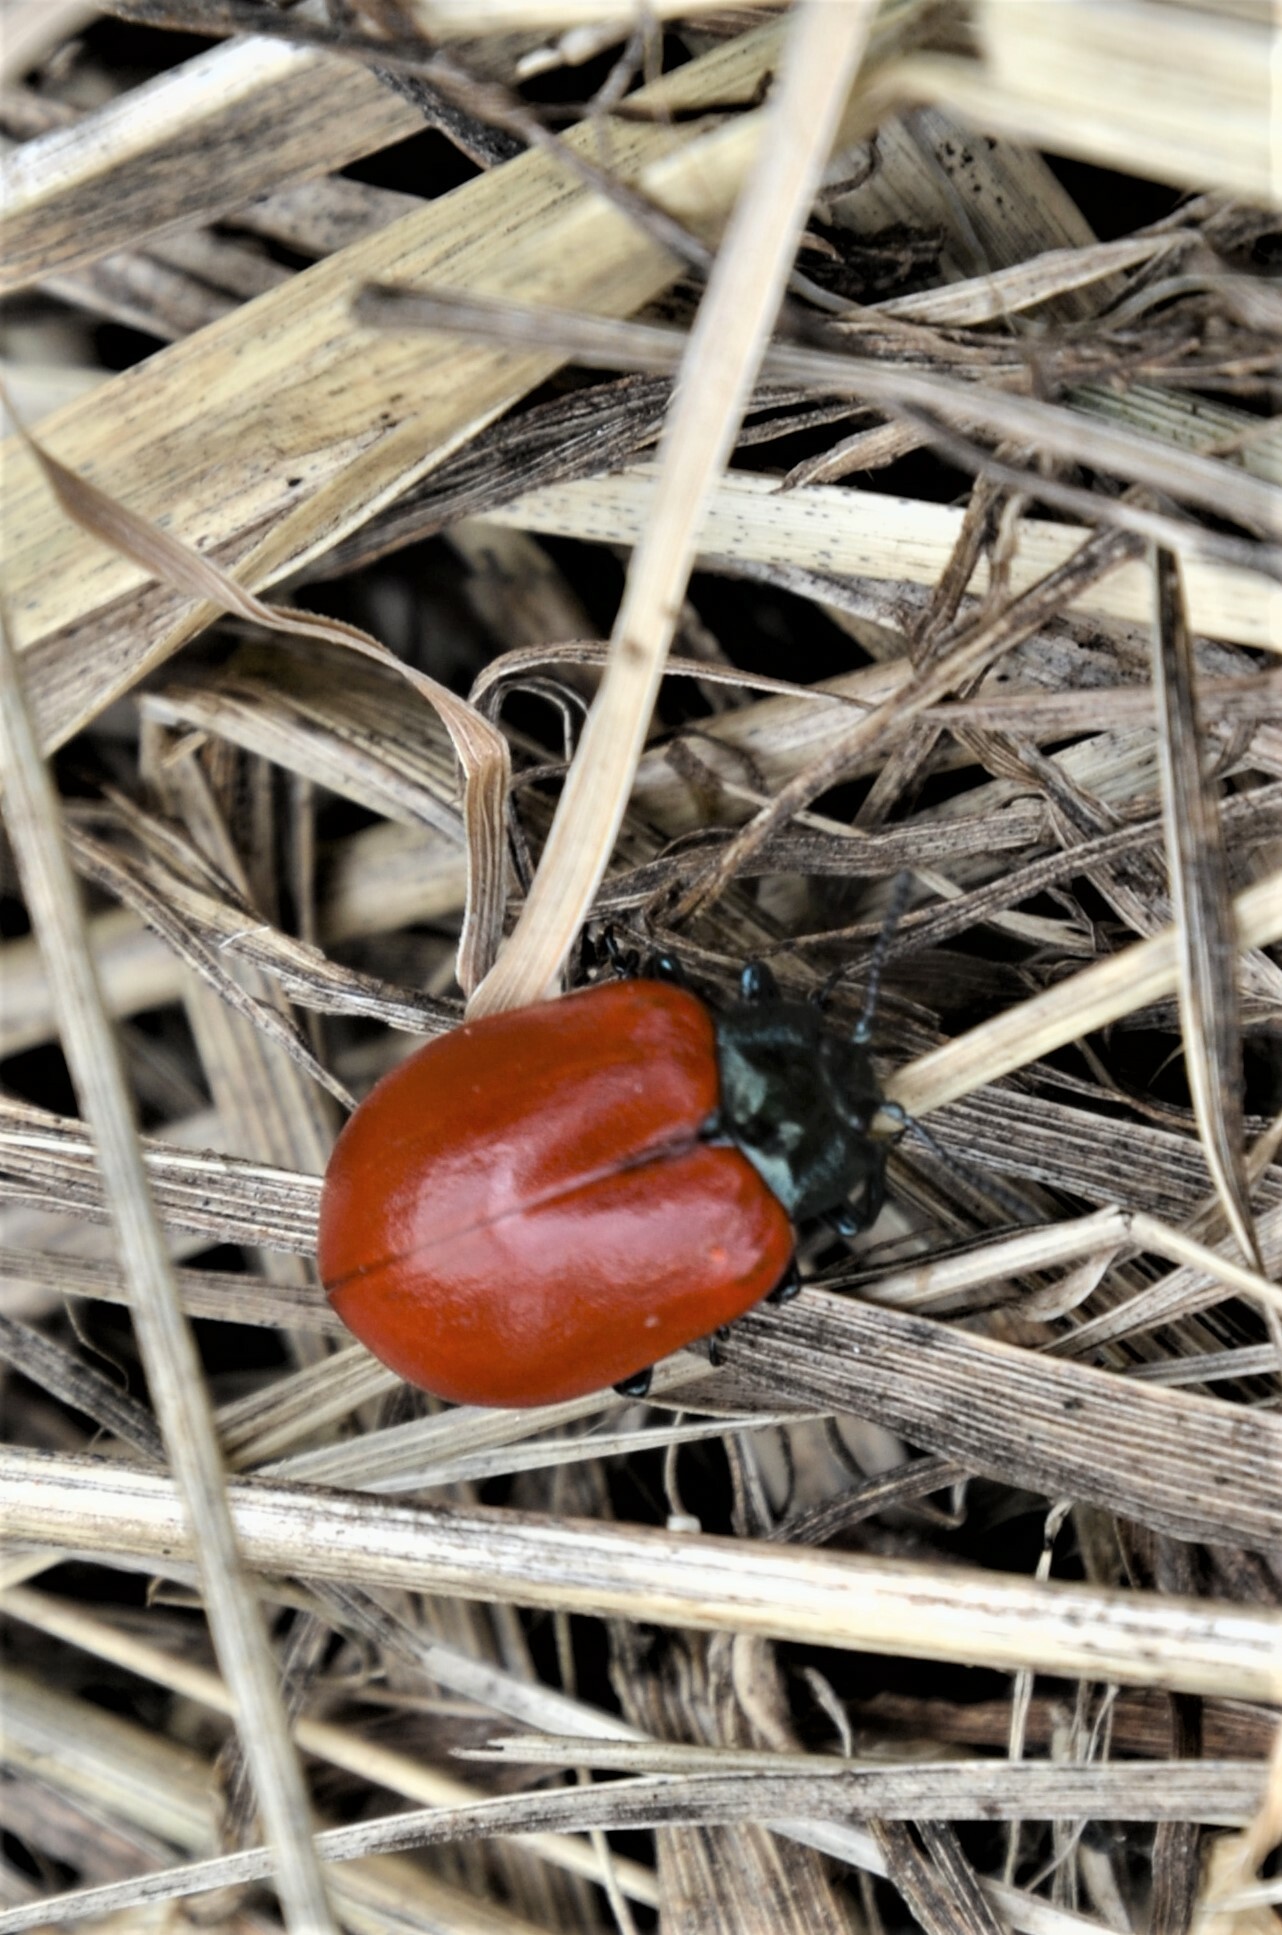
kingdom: Animalia
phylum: Arthropoda
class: Insecta
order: Coleoptera
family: Chrysomelidae
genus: Chrysomela
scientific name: Chrysomela populi
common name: Red poplar leaf beetle
